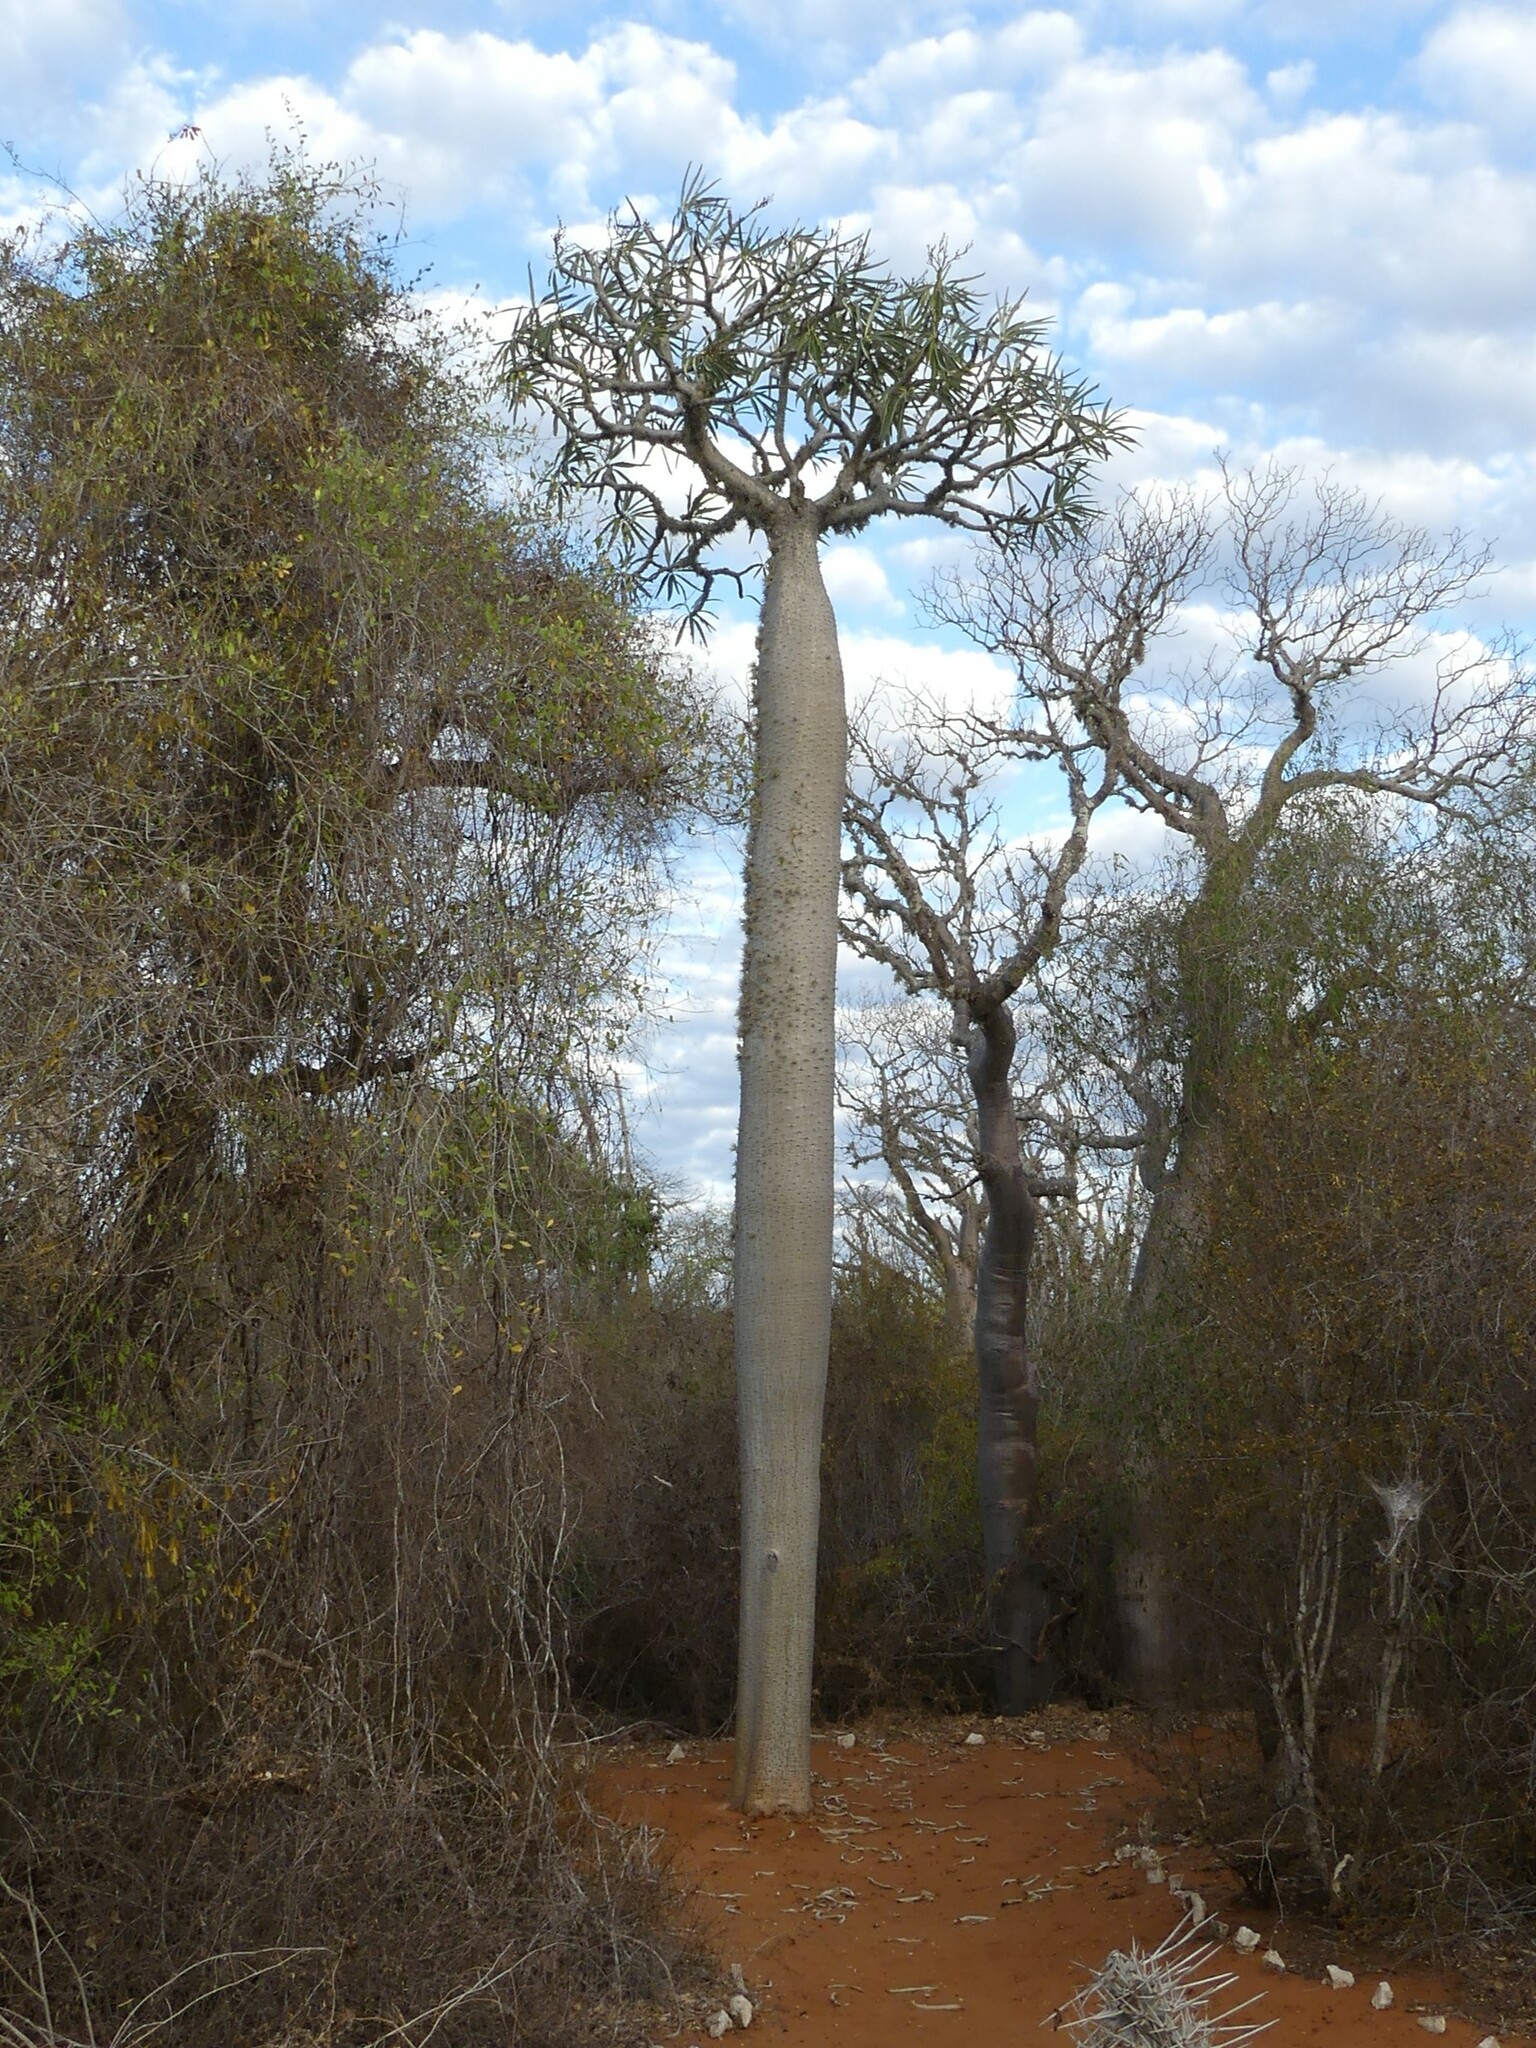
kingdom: Plantae
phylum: Tracheophyta
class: Magnoliopsida
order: Gentianales
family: Apocynaceae
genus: Pachypodium
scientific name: Pachypodium geayi
